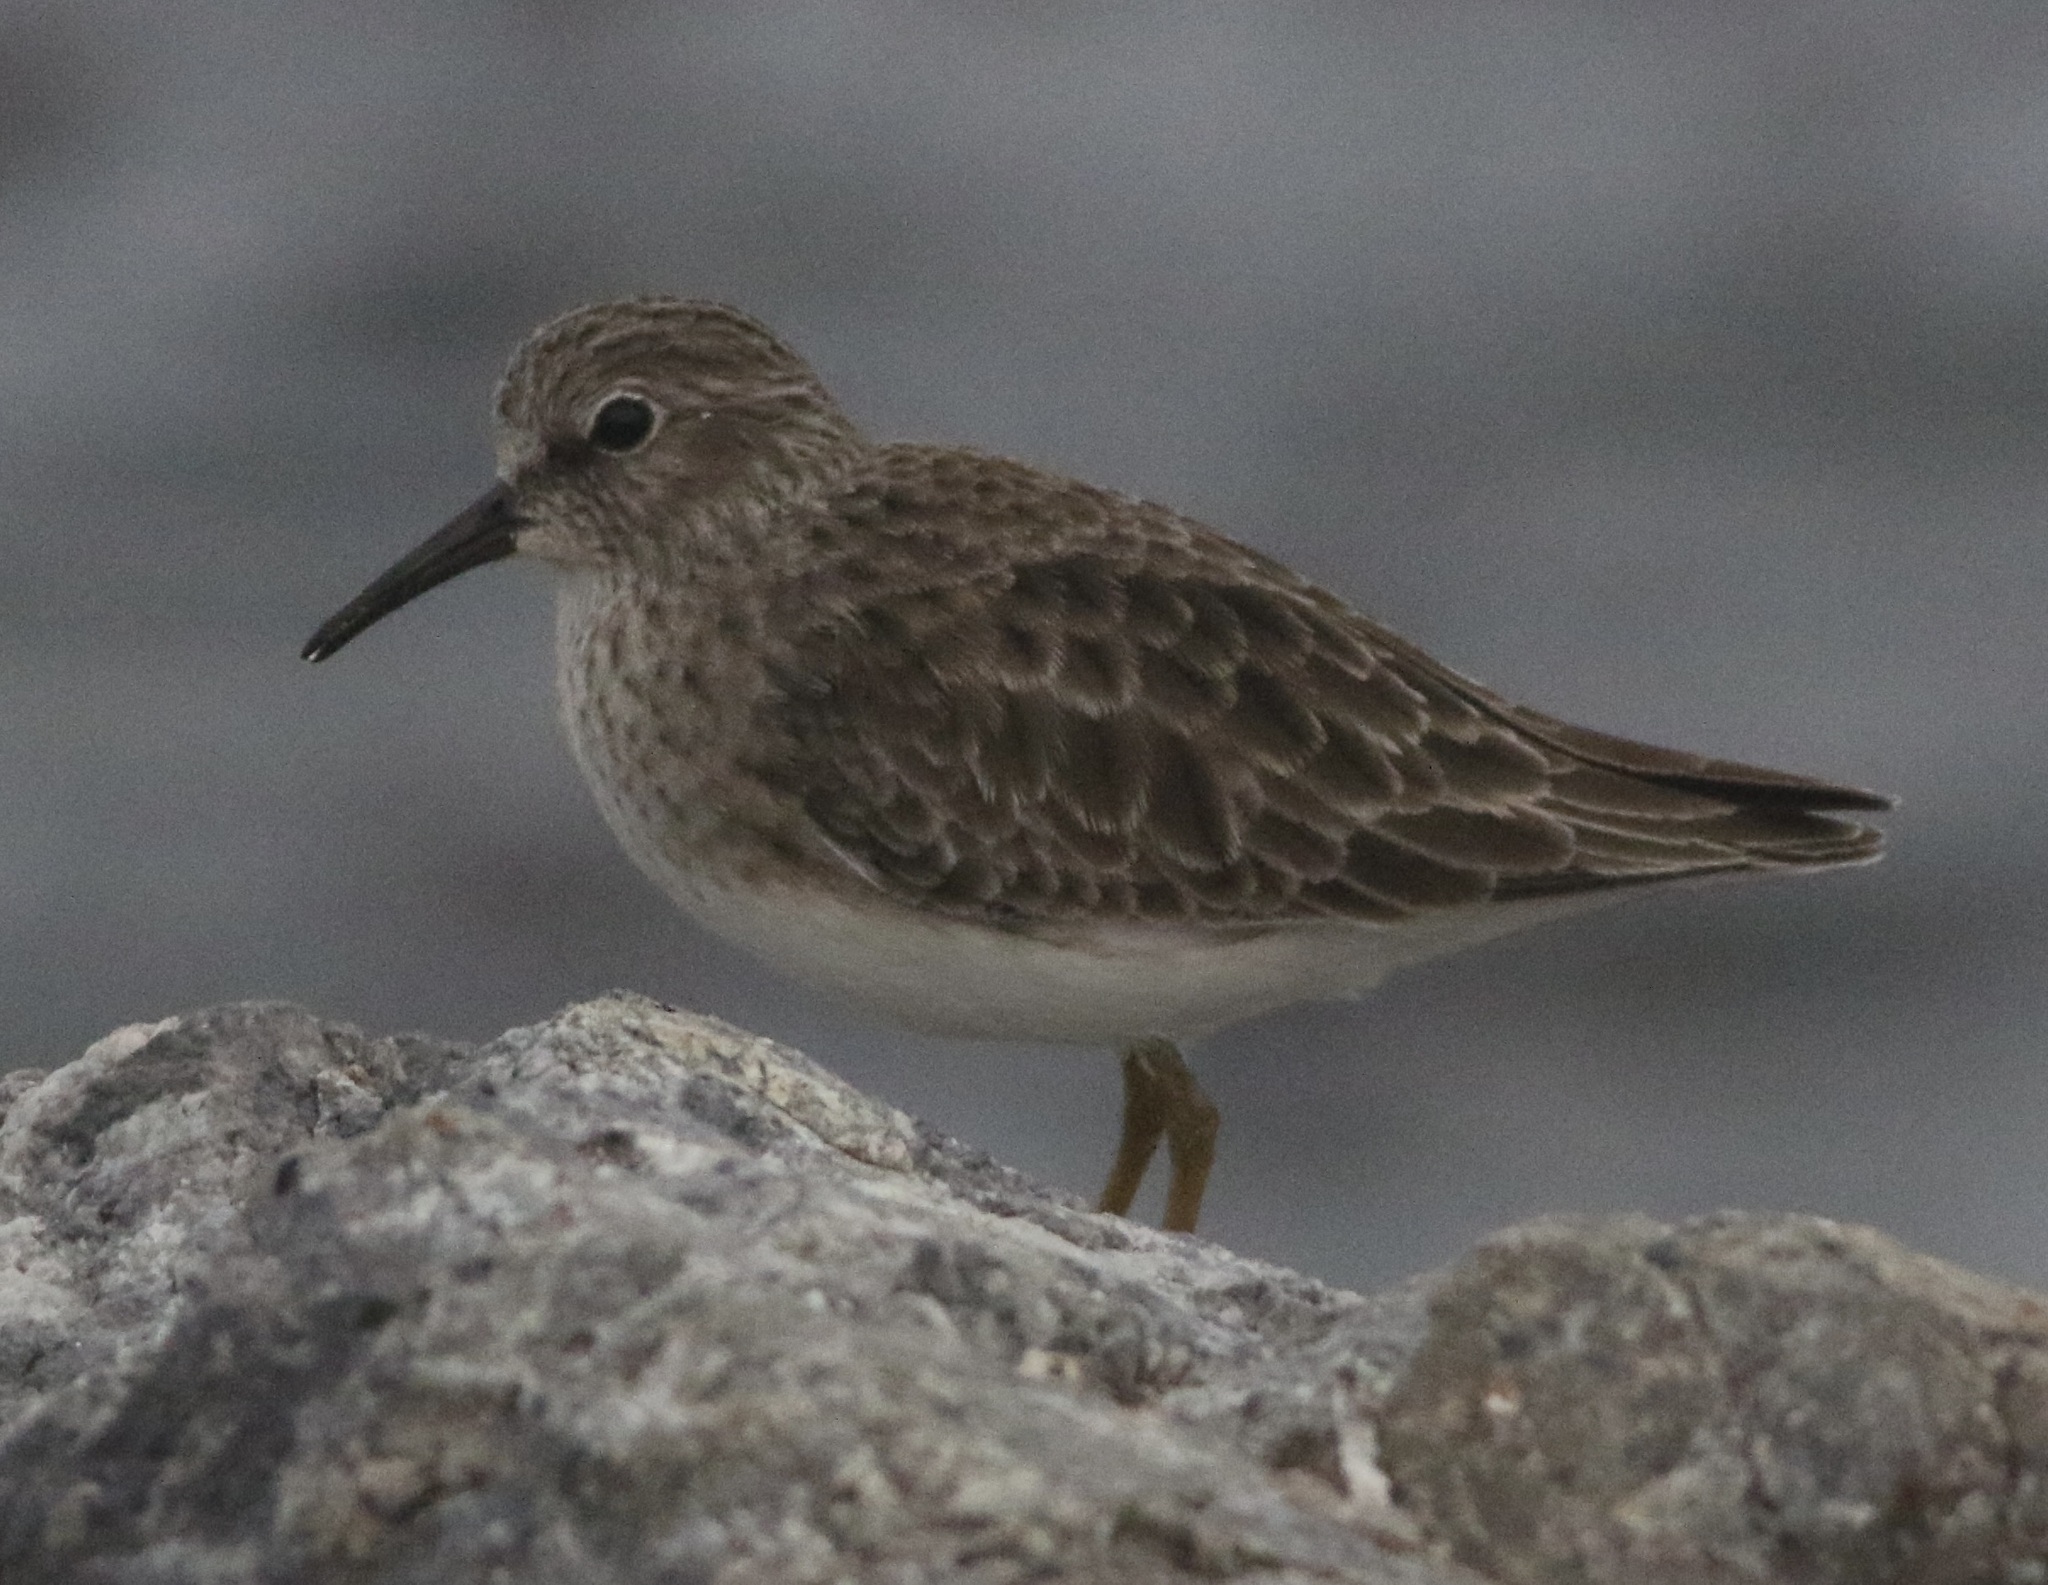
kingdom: Animalia
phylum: Chordata
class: Aves
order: Charadriiformes
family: Scolopacidae
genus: Calidris
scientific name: Calidris minutilla
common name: Least sandpiper
